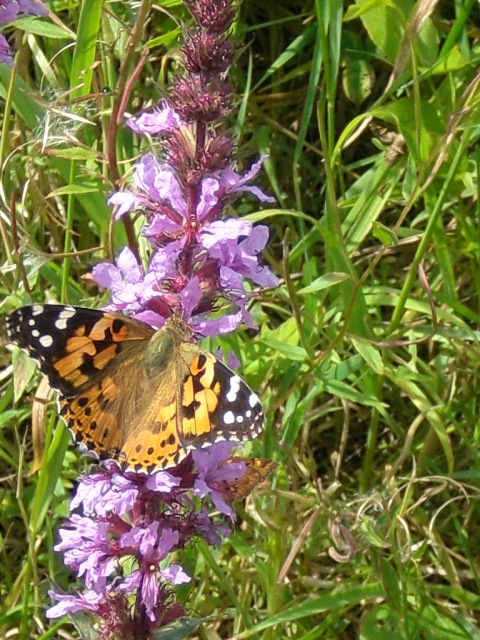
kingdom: Animalia
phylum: Arthropoda
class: Insecta
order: Lepidoptera
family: Nymphalidae
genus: Vanessa
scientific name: Vanessa cardui
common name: Painted lady
